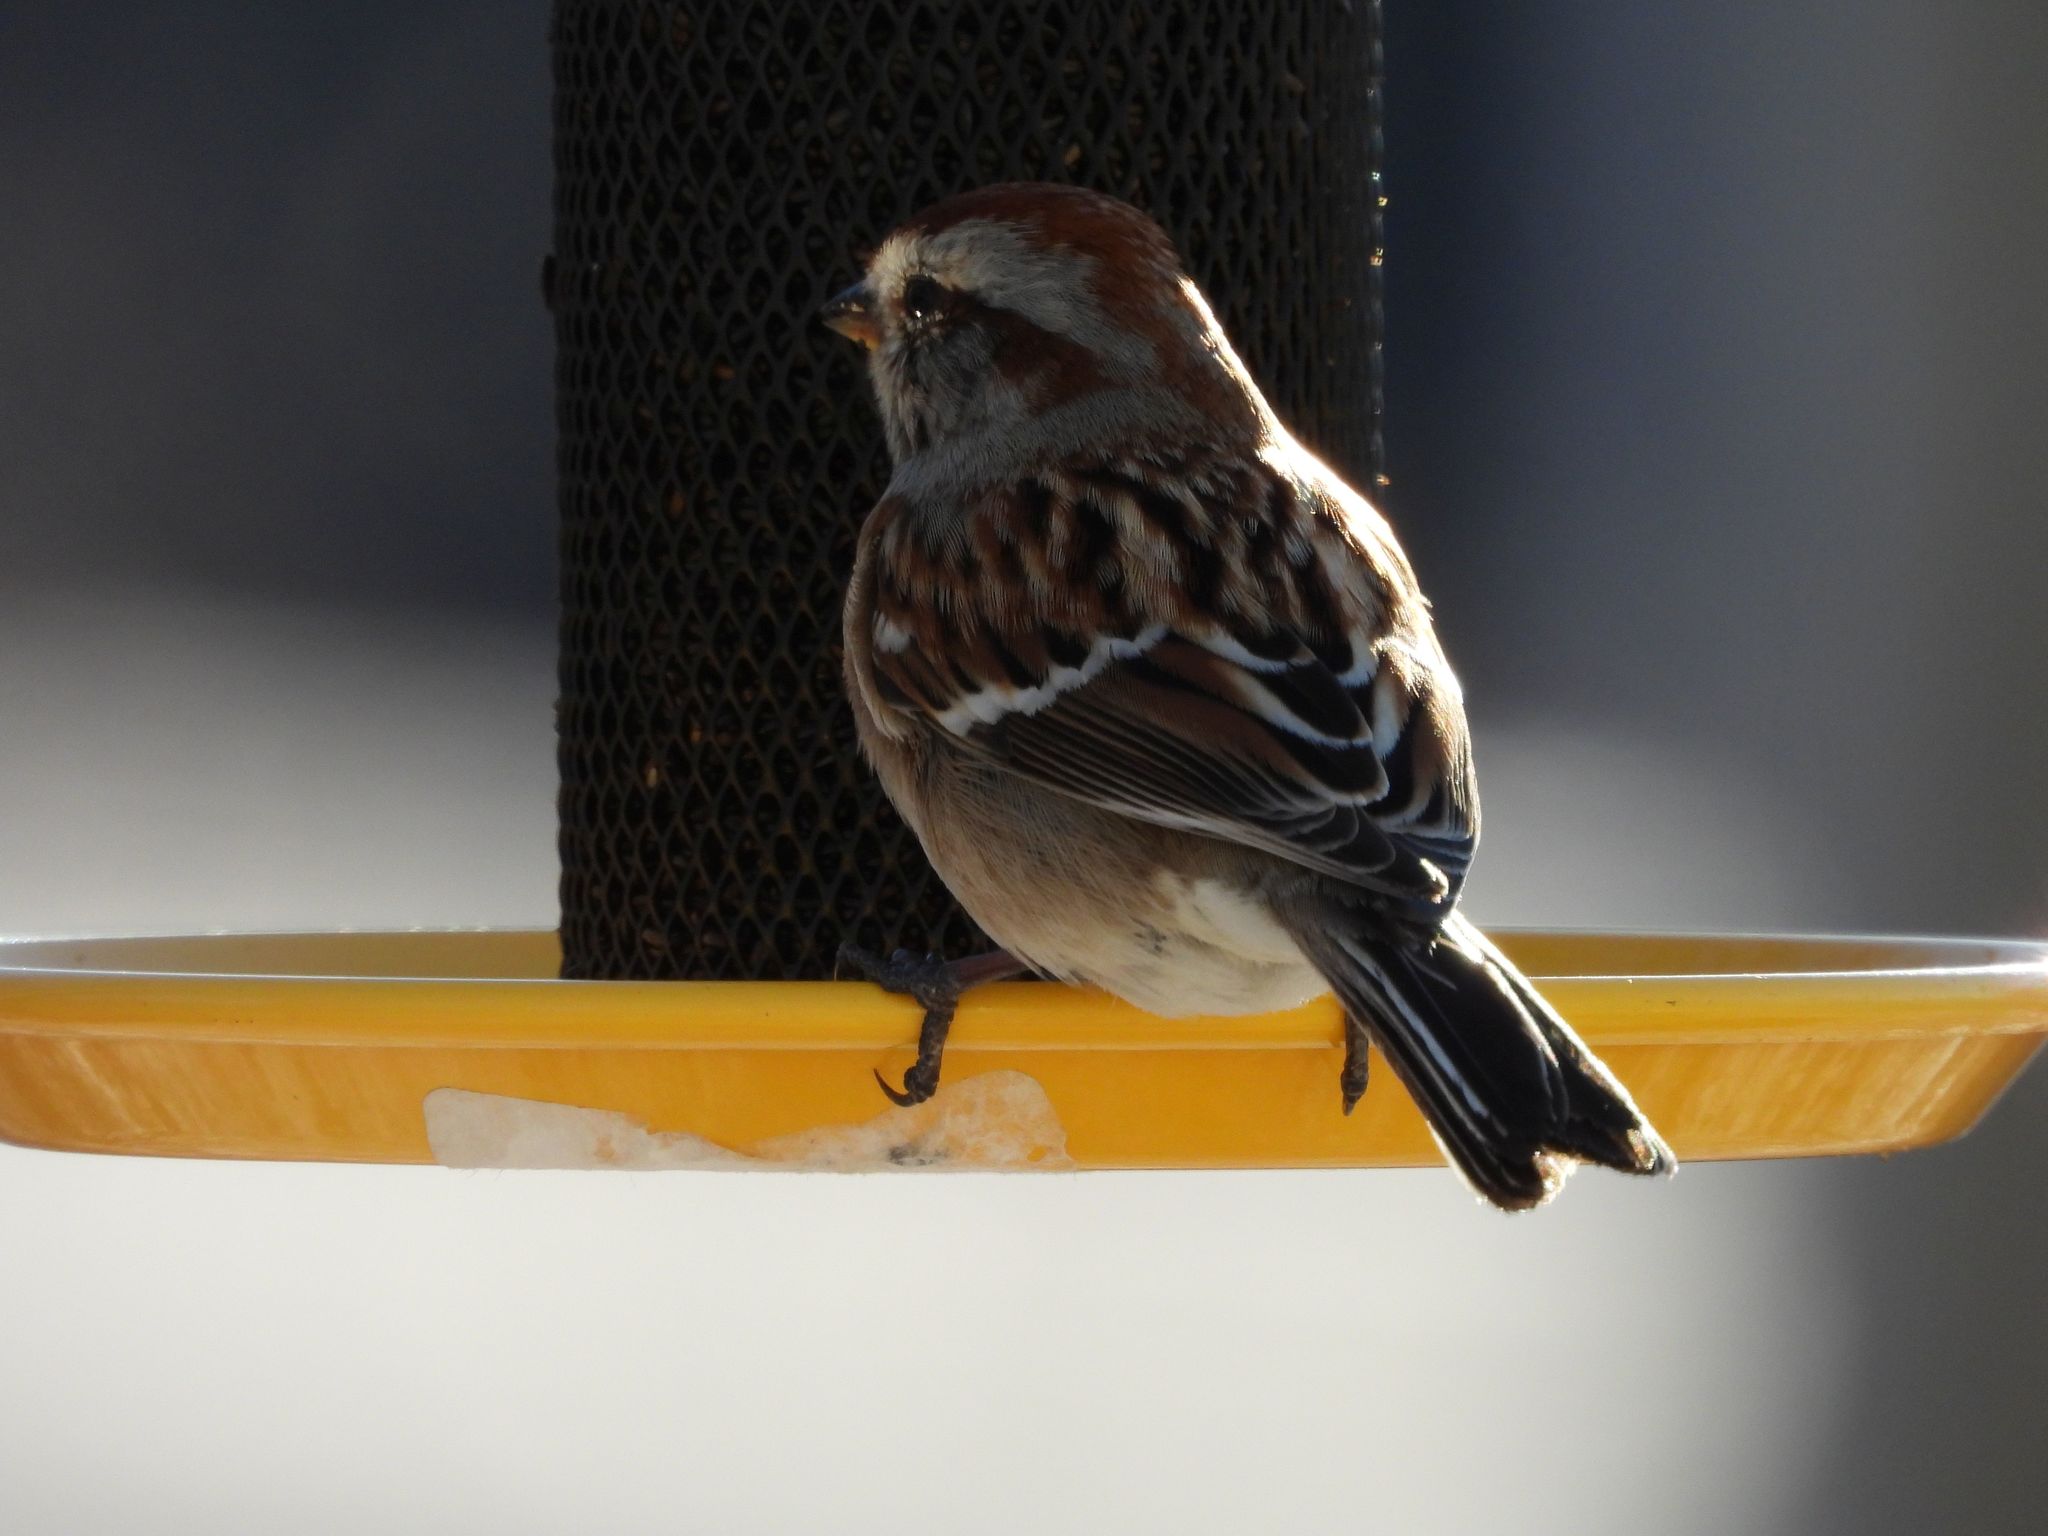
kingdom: Animalia
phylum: Chordata
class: Aves
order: Passeriformes
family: Passerellidae
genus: Spizelloides
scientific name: Spizelloides arborea
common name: American tree sparrow
